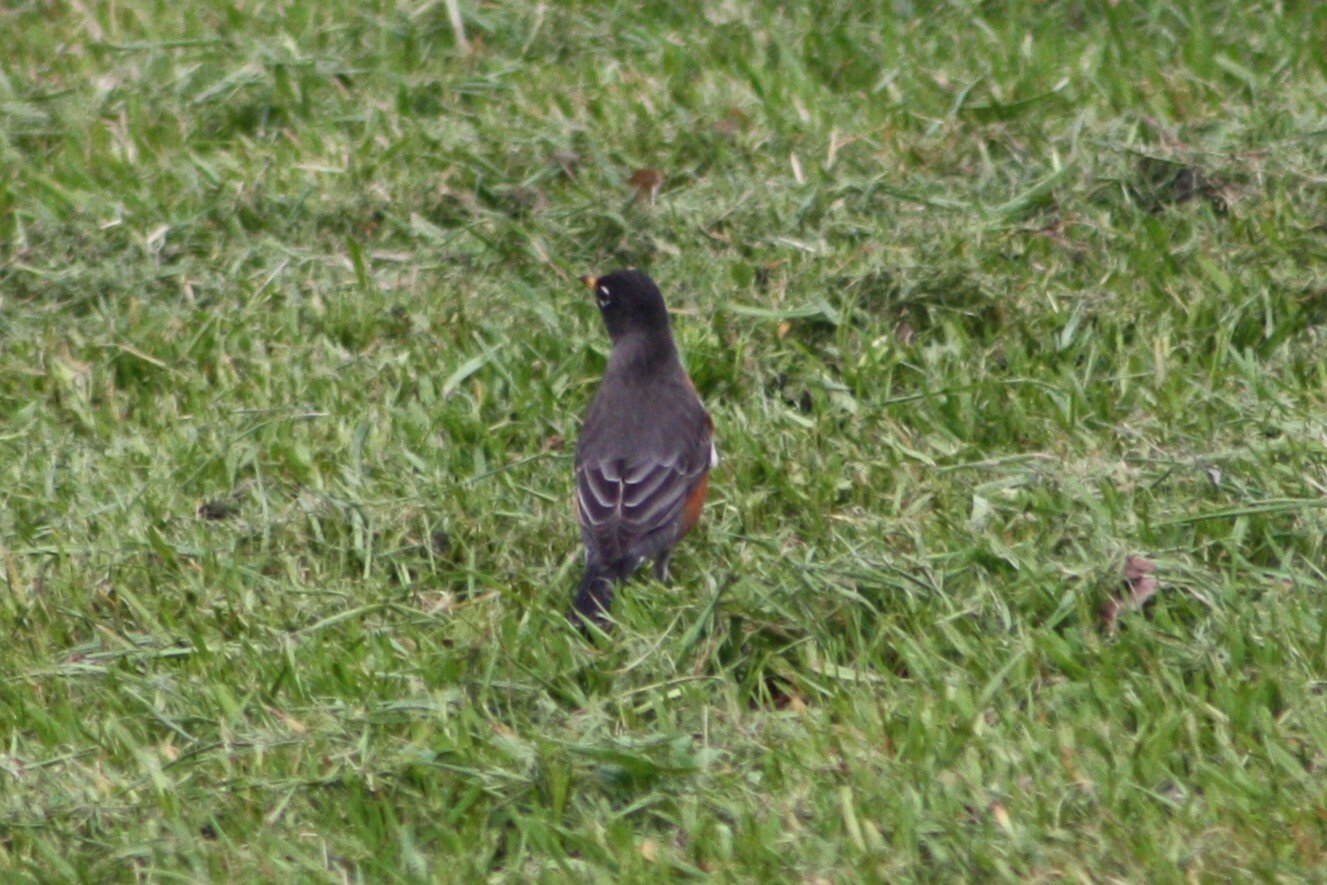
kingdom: Animalia
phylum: Chordata
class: Aves
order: Passeriformes
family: Turdidae
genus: Turdus
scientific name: Turdus migratorius
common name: American robin
